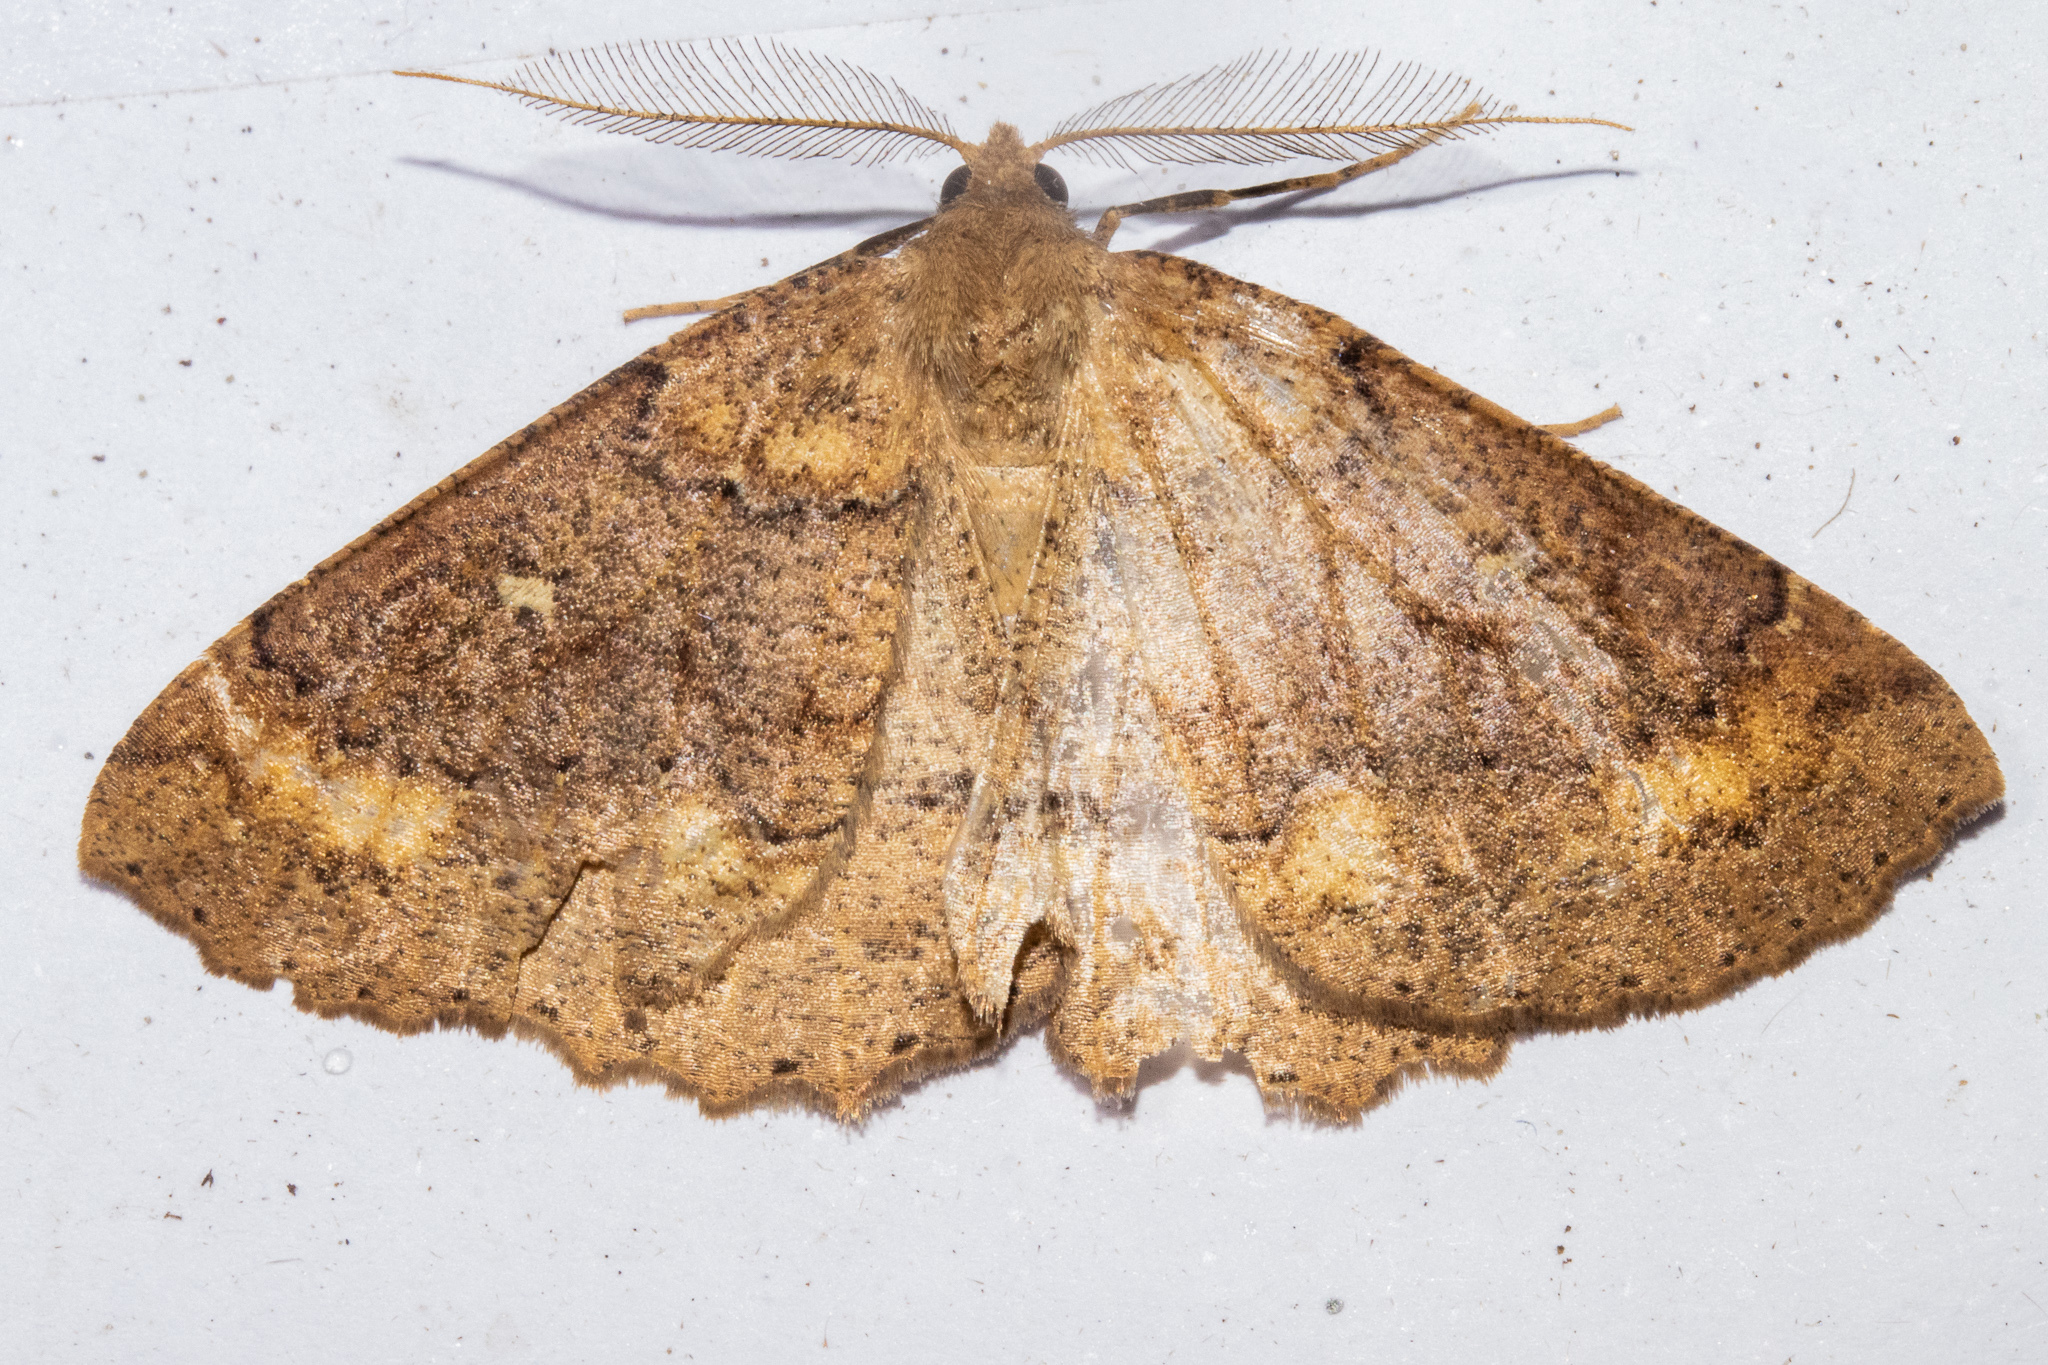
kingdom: Animalia
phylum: Arthropoda
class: Insecta
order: Lepidoptera
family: Geometridae
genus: Cleora
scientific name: Cleora scriptaria
